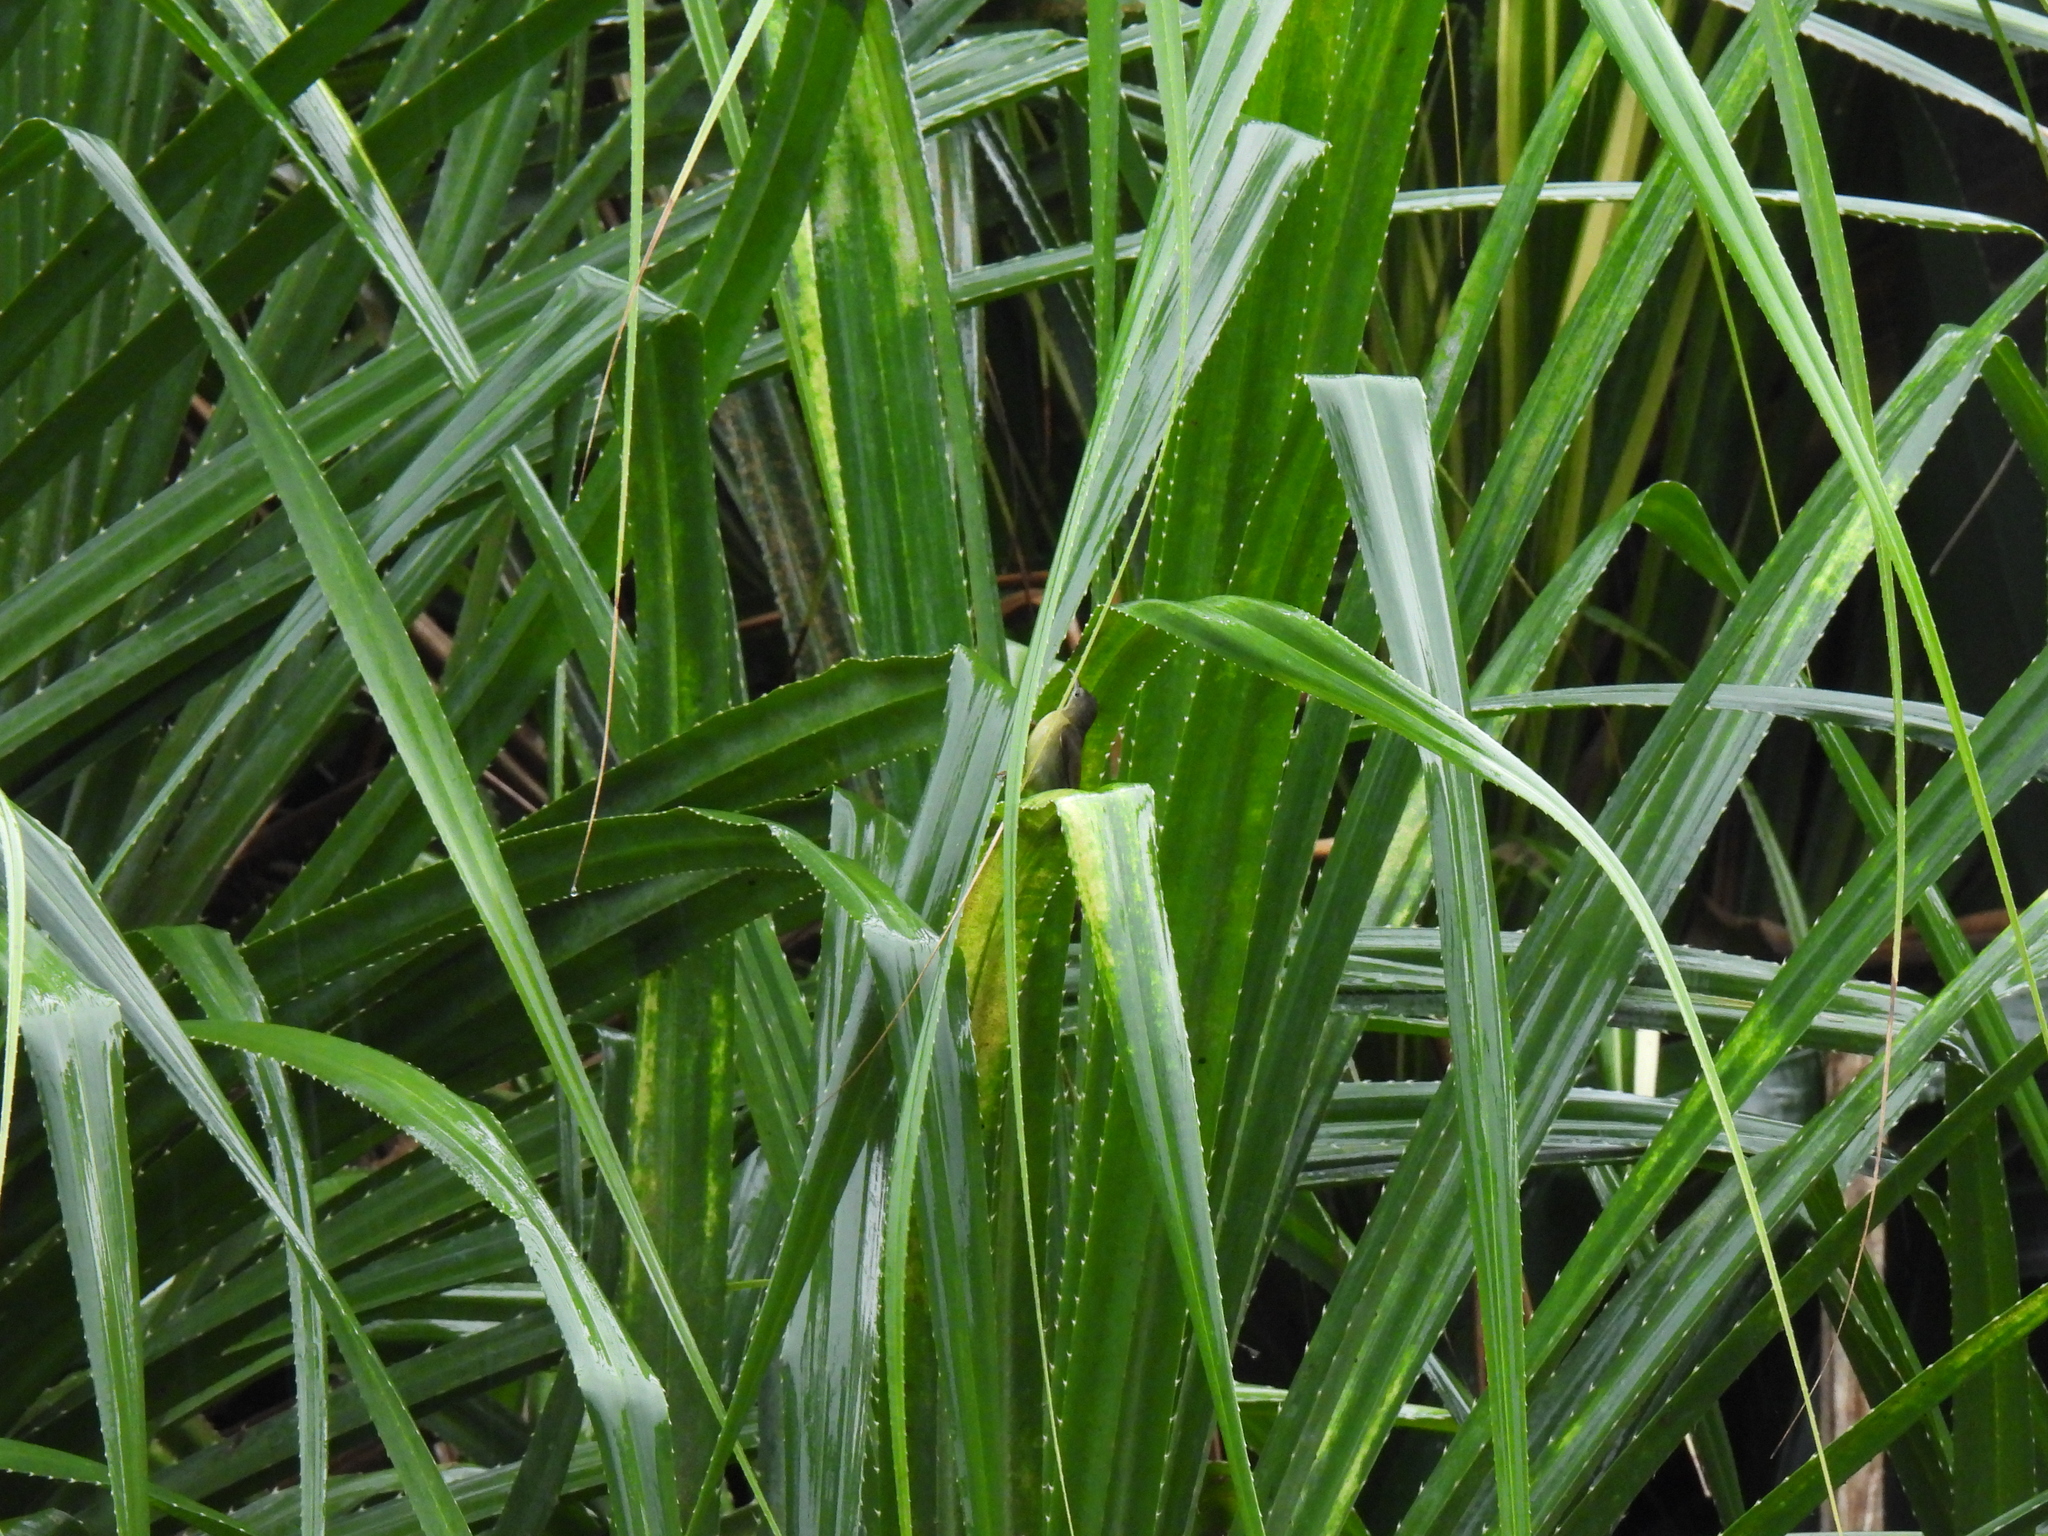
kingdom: Animalia
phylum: Chordata
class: Aves
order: Passeriformes
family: Nectariniidae
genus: Anthreptes
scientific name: Anthreptes malacensis
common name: Brown-throated sunbird
